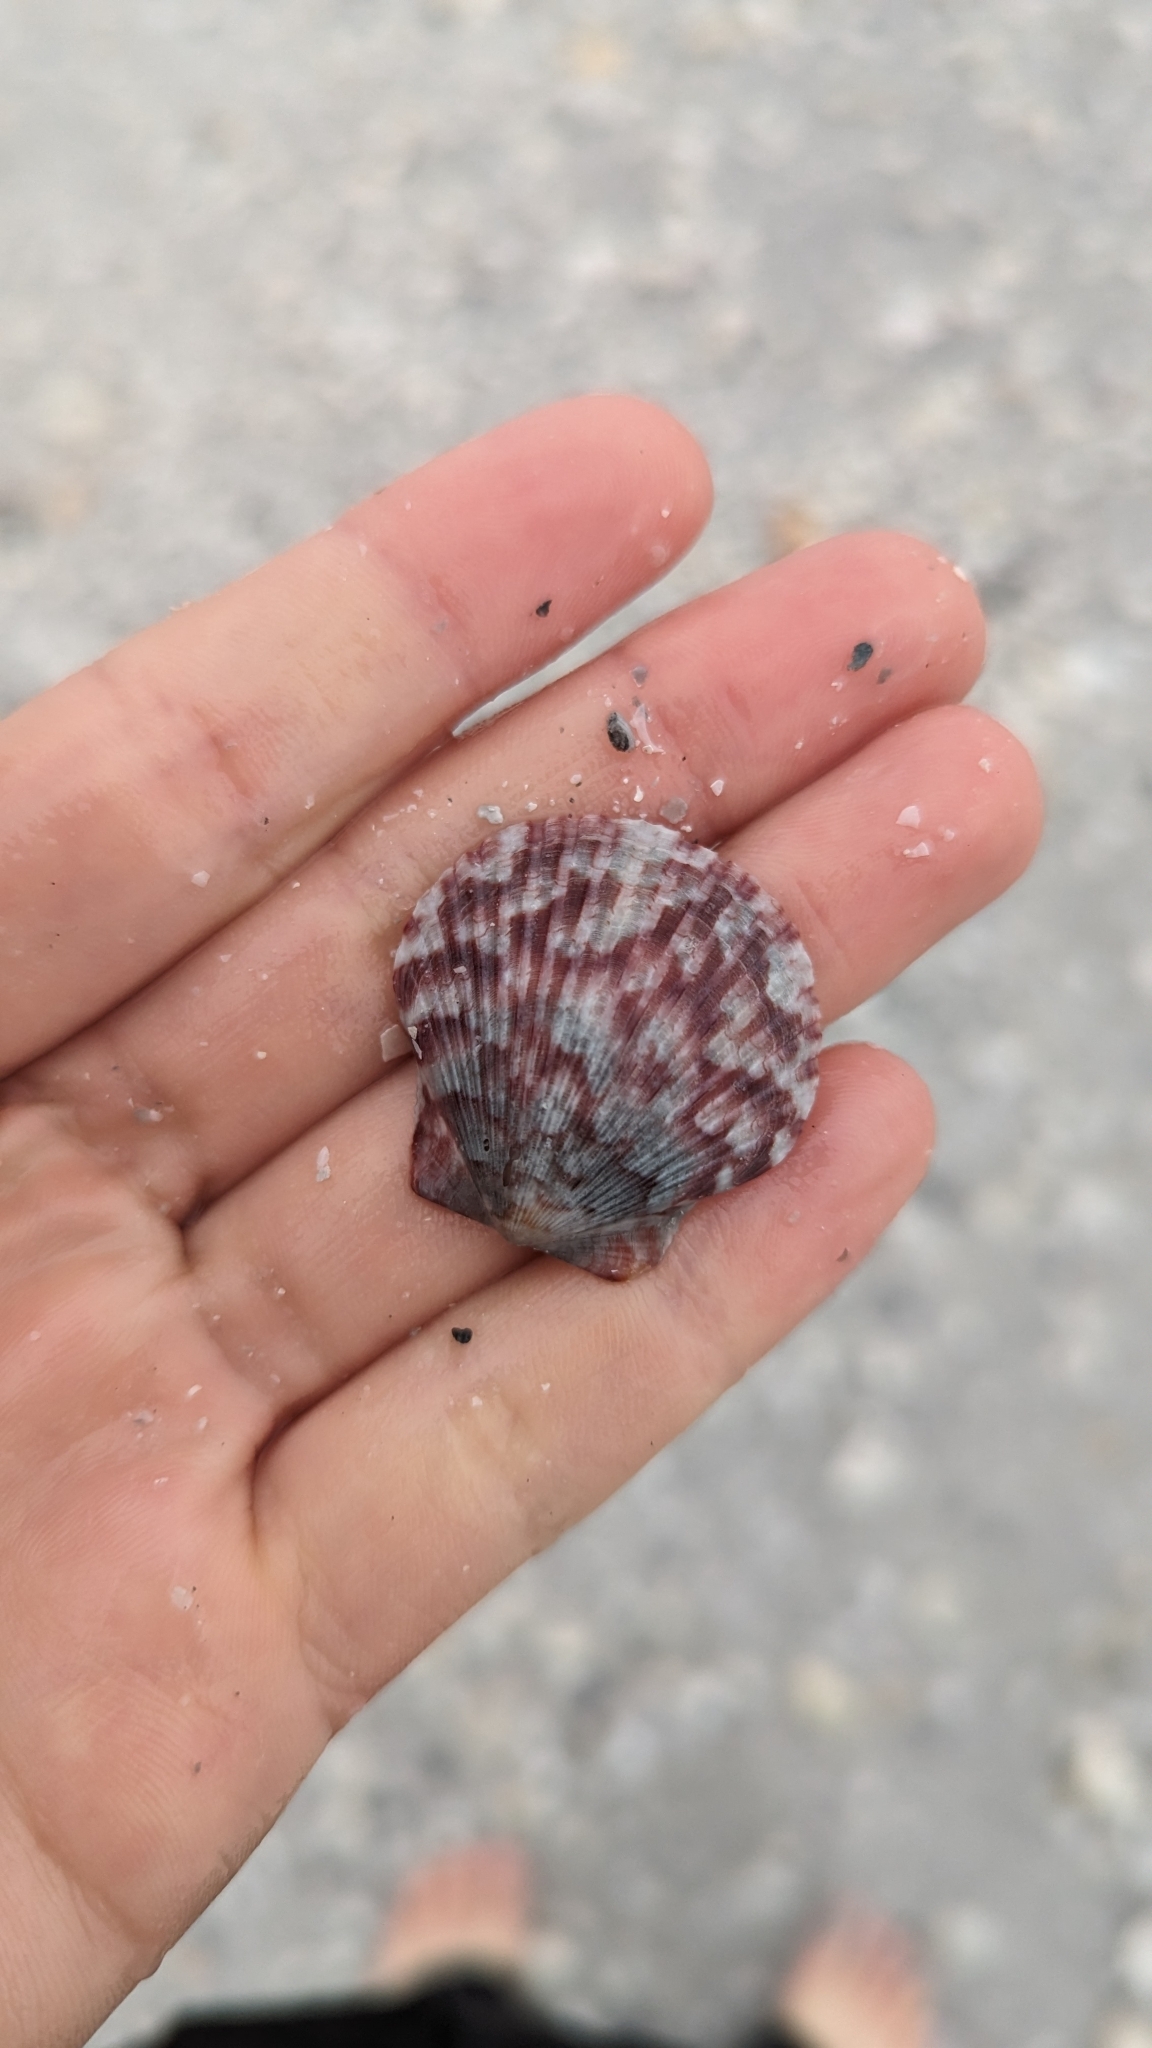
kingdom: Animalia
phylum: Mollusca
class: Bivalvia
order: Pectinida
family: Pectinidae
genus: Argopecten
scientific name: Argopecten gibbus
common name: Atlantic calico scallop
